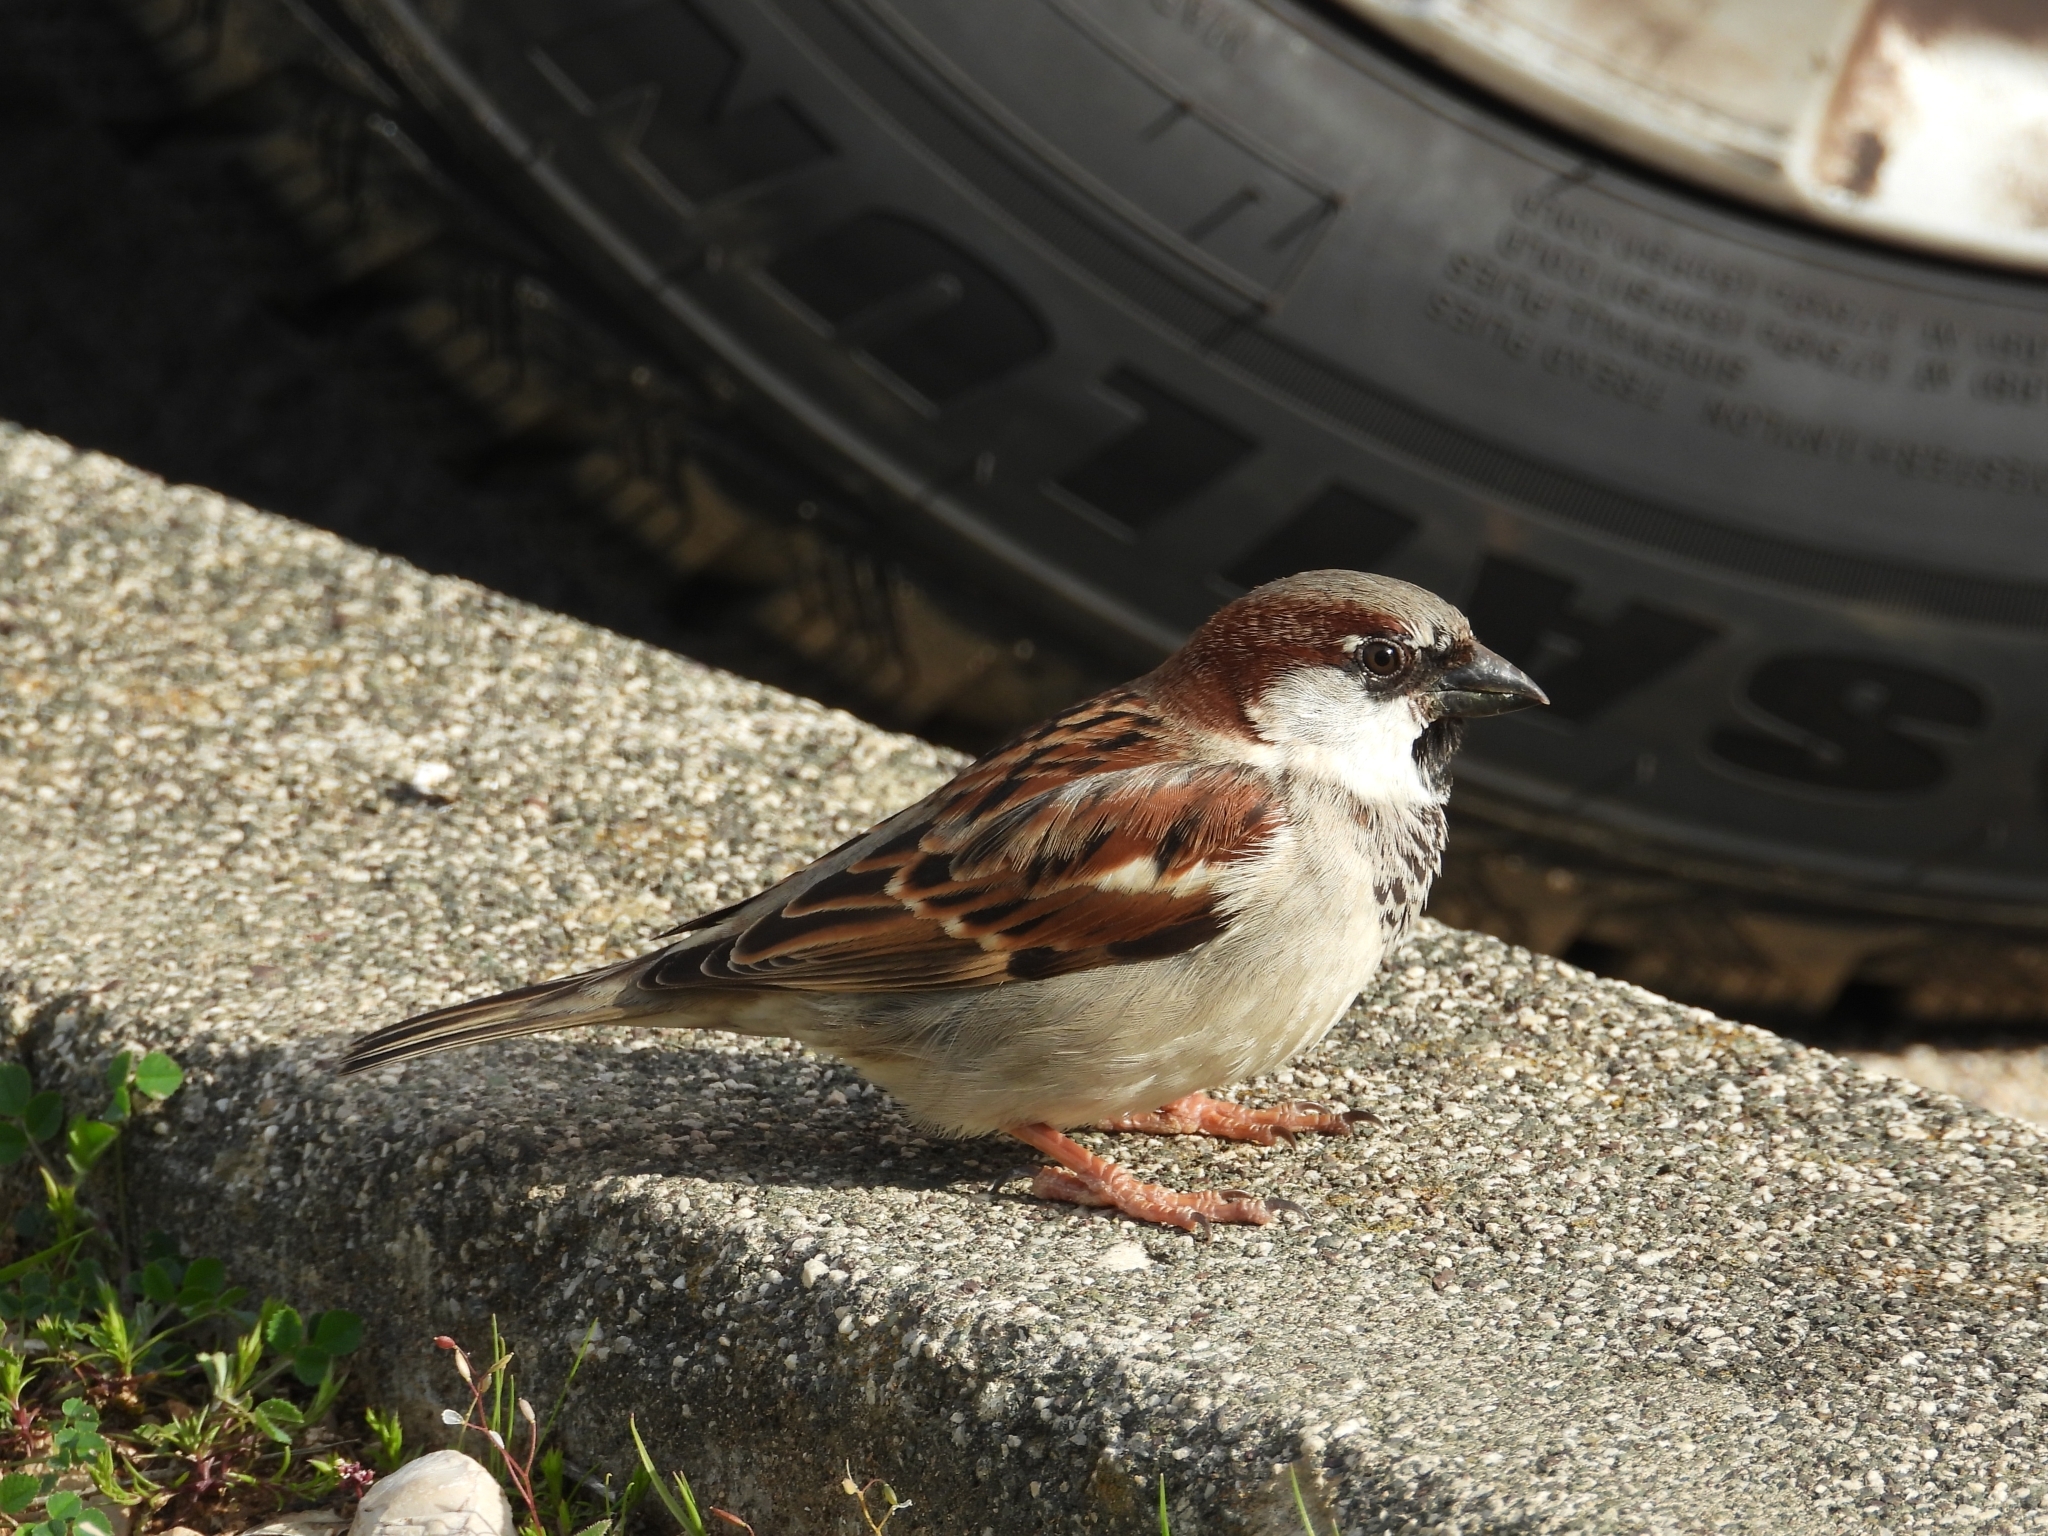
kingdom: Animalia
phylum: Chordata
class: Aves
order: Passeriformes
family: Passeridae
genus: Passer
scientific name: Passer domesticus
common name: House sparrow
